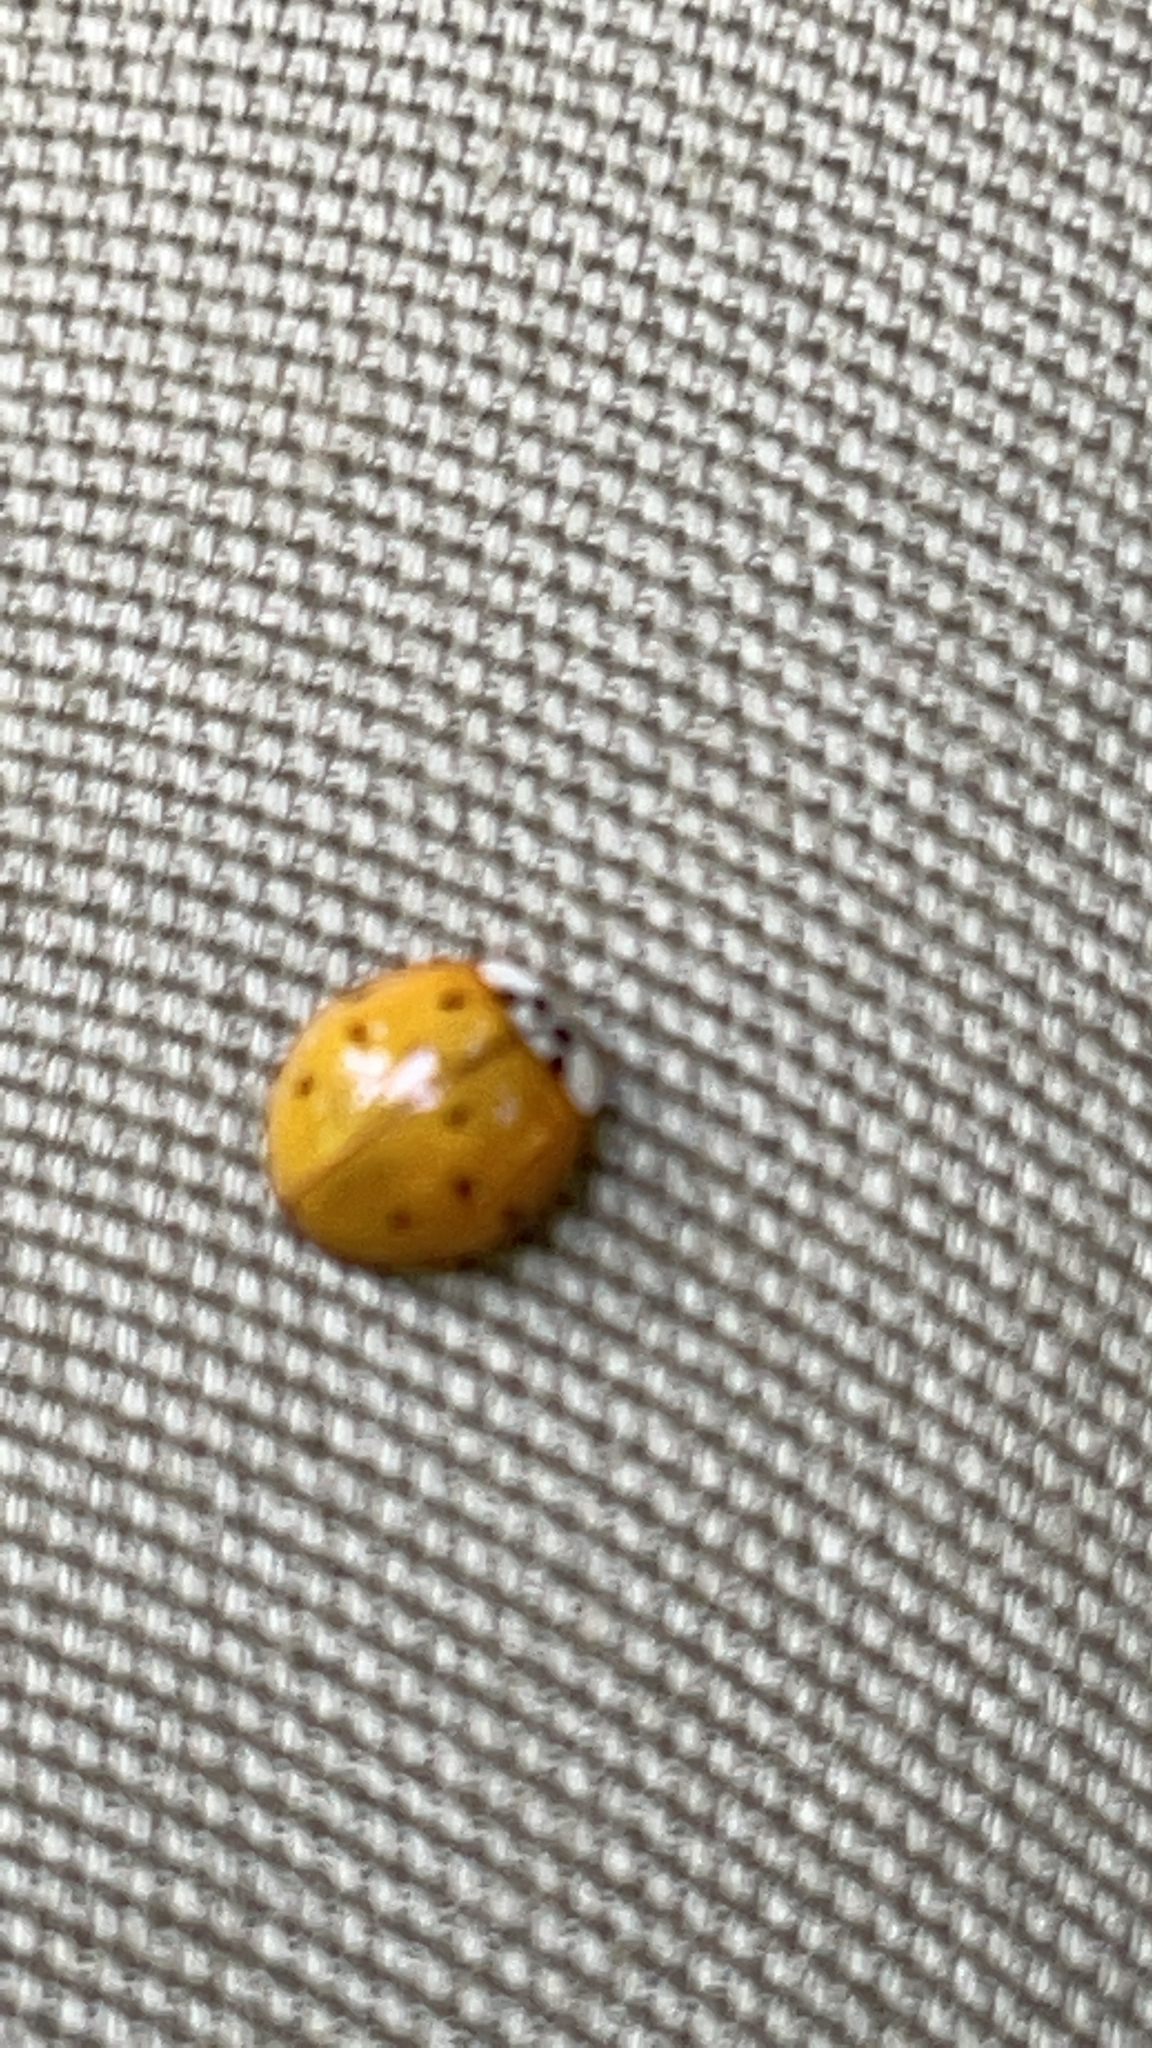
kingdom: Animalia
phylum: Arthropoda
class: Insecta
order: Coleoptera
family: Coccinellidae
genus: Harmonia
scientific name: Harmonia axyridis
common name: Harlequin ladybird
